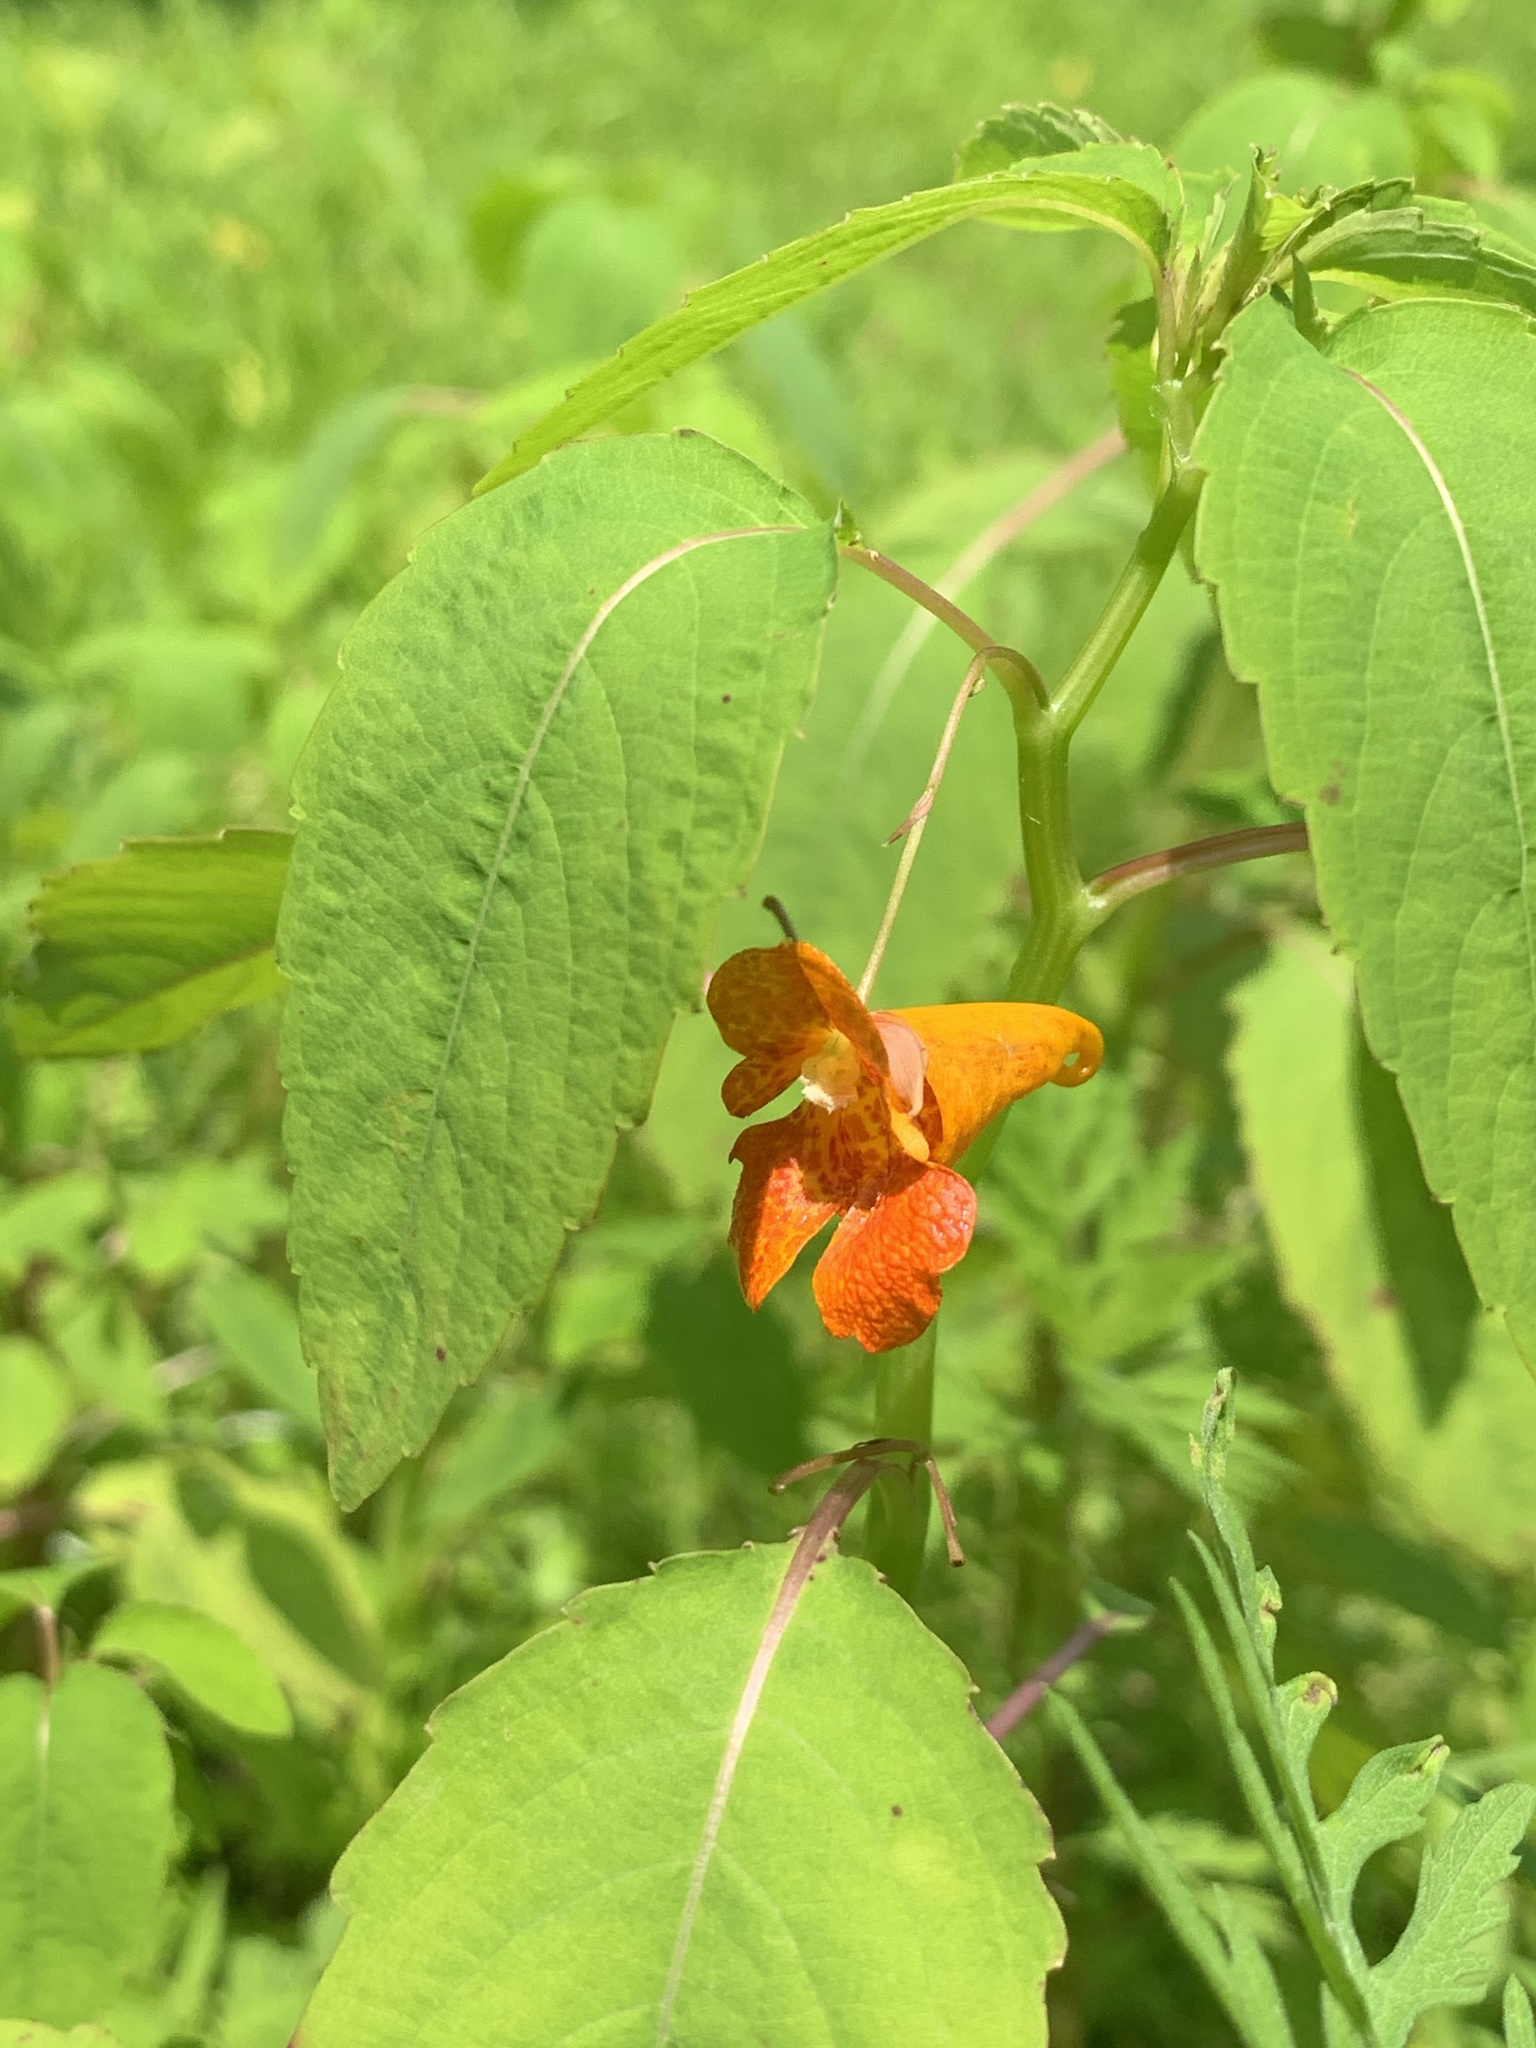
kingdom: Plantae
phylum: Tracheophyta
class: Magnoliopsida
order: Ericales
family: Balsaminaceae
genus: Impatiens
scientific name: Impatiens capensis
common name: Orange balsam
